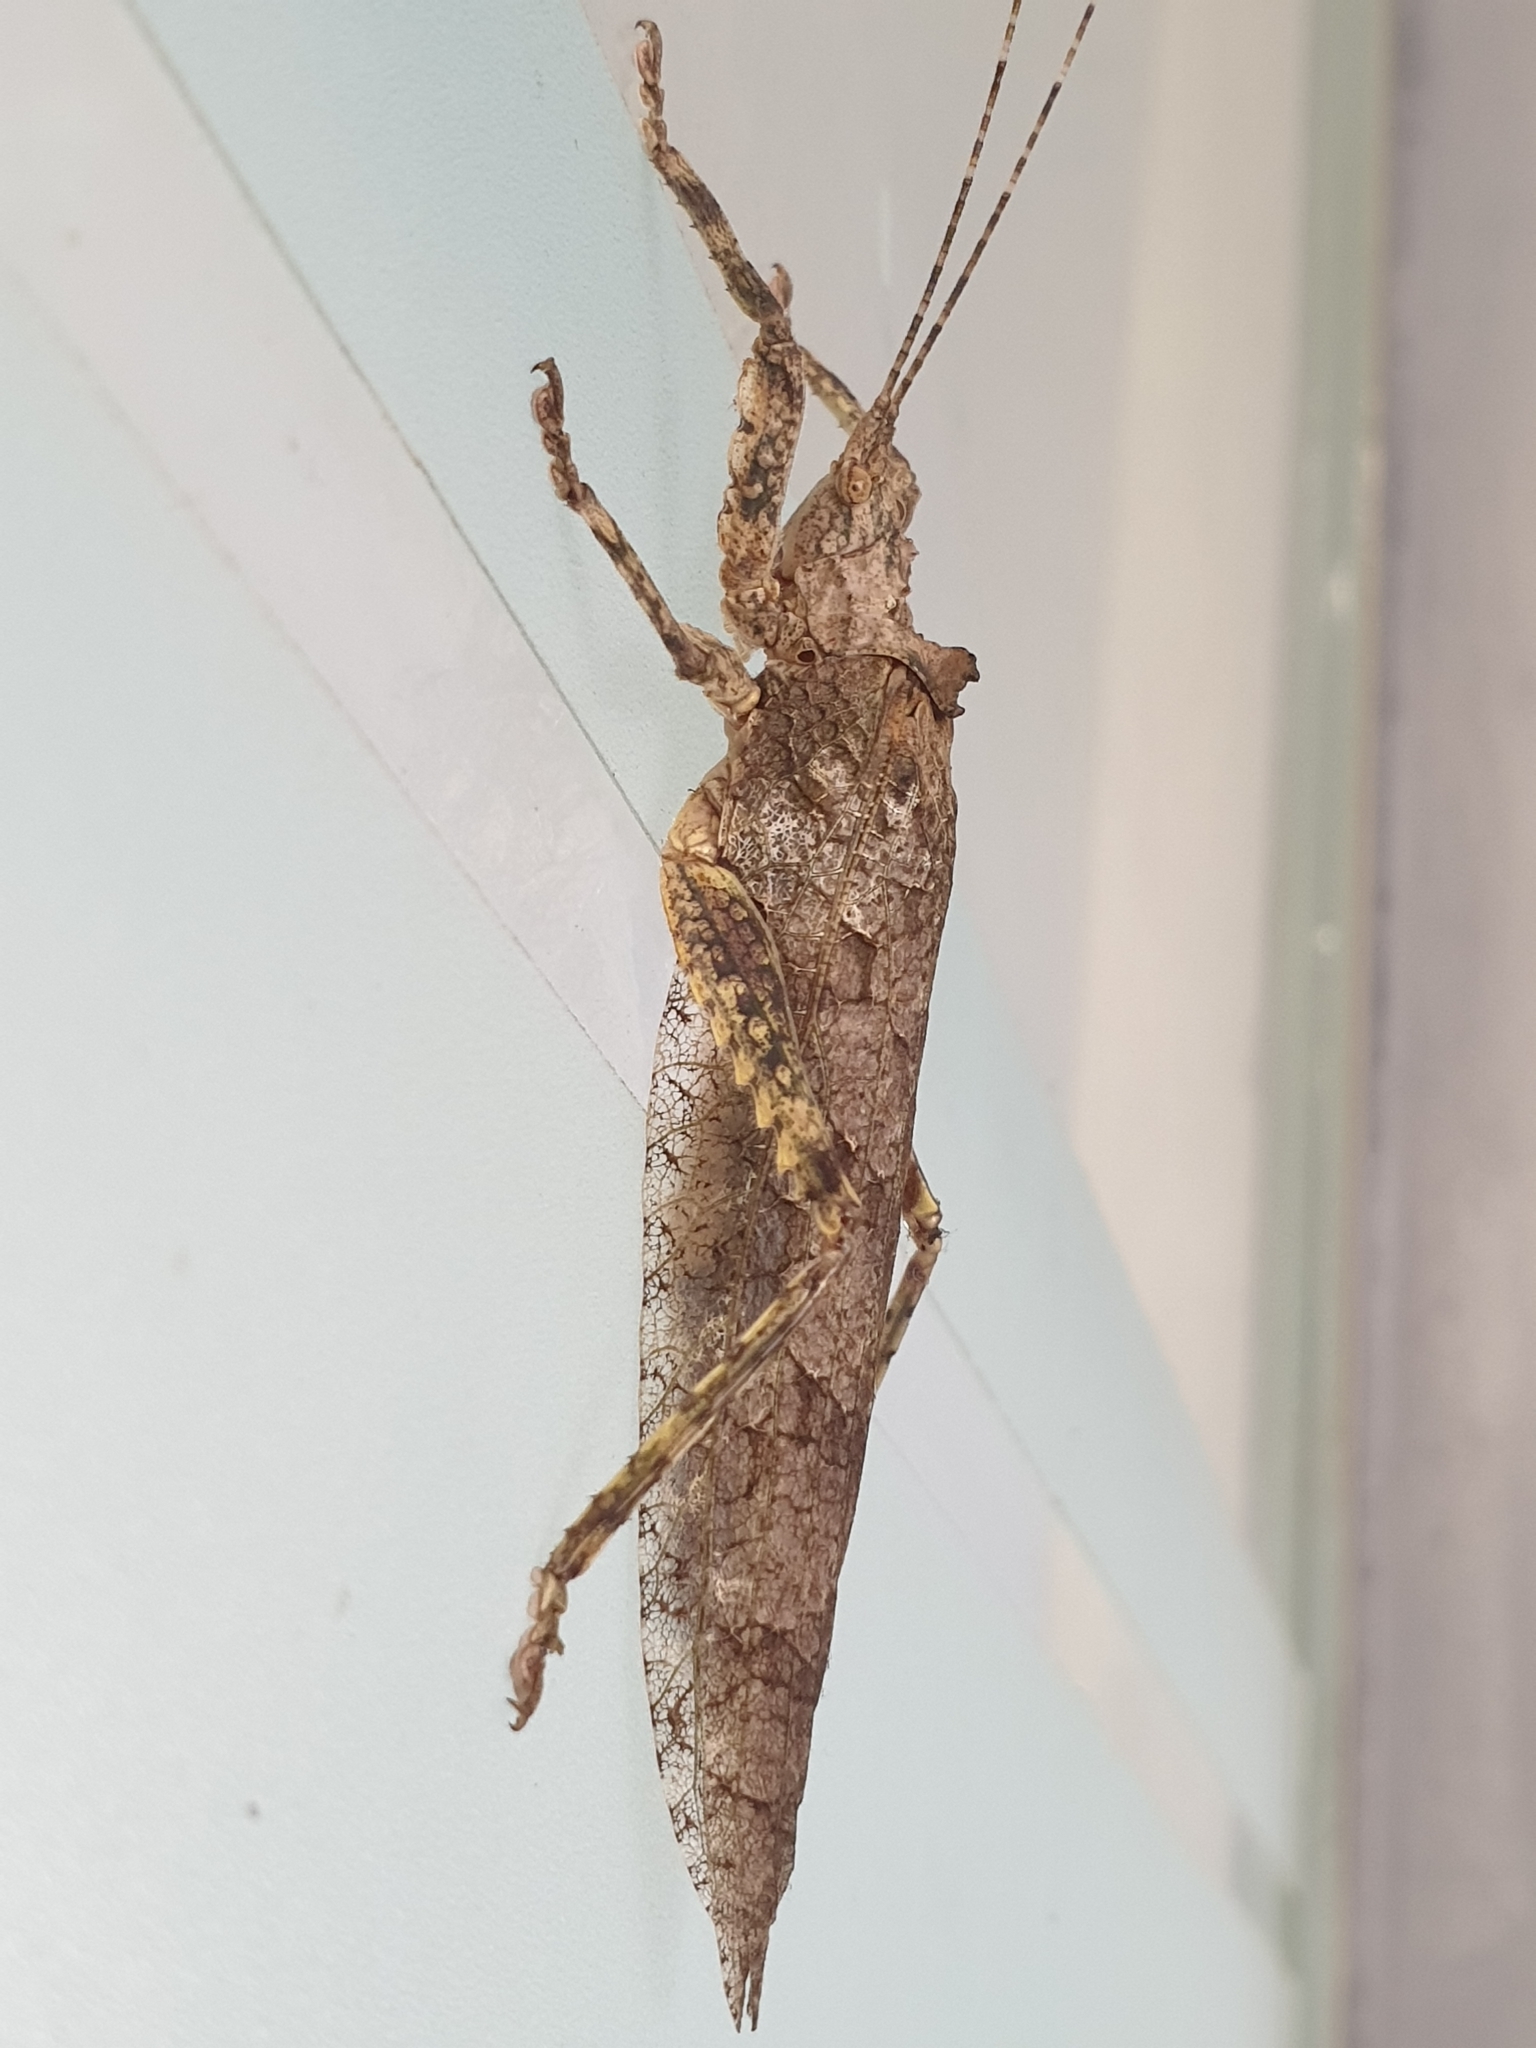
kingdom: Animalia
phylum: Arthropoda
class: Insecta
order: Orthoptera
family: Tettigoniidae
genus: Sathrophyllia
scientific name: Sathrophyllia rugosa
